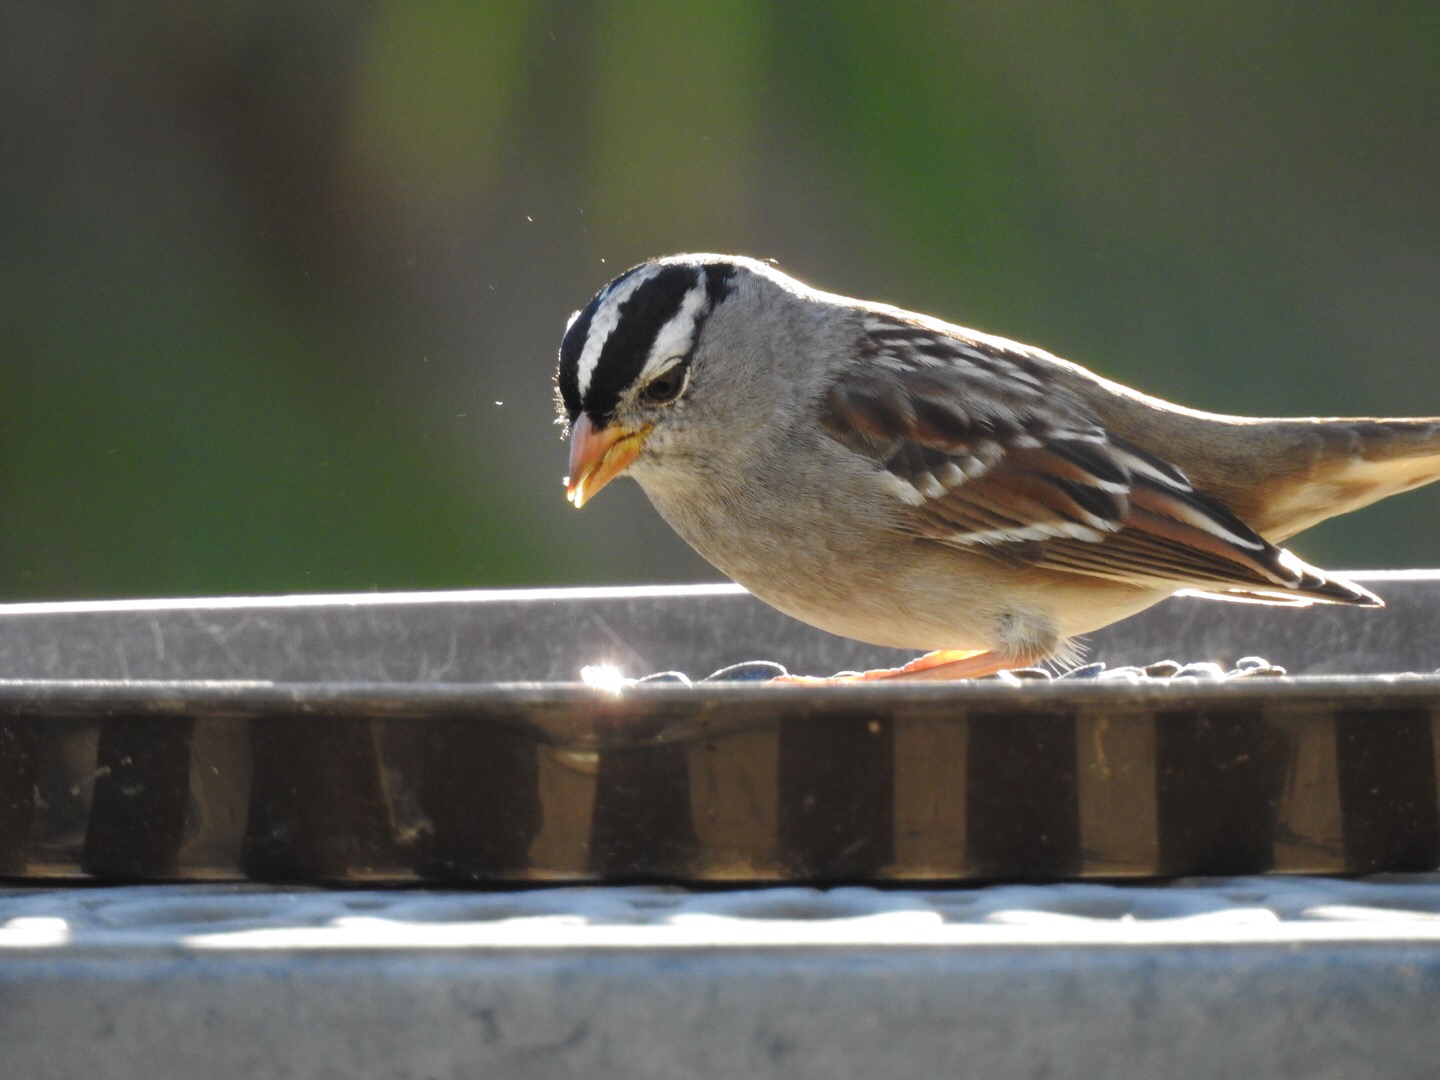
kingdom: Animalia
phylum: Chordata
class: Aves
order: Passeriformes
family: Passerellidae
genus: Zonotrichia
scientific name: Zonotrichia leucophrys
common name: White-crowned sparrow
